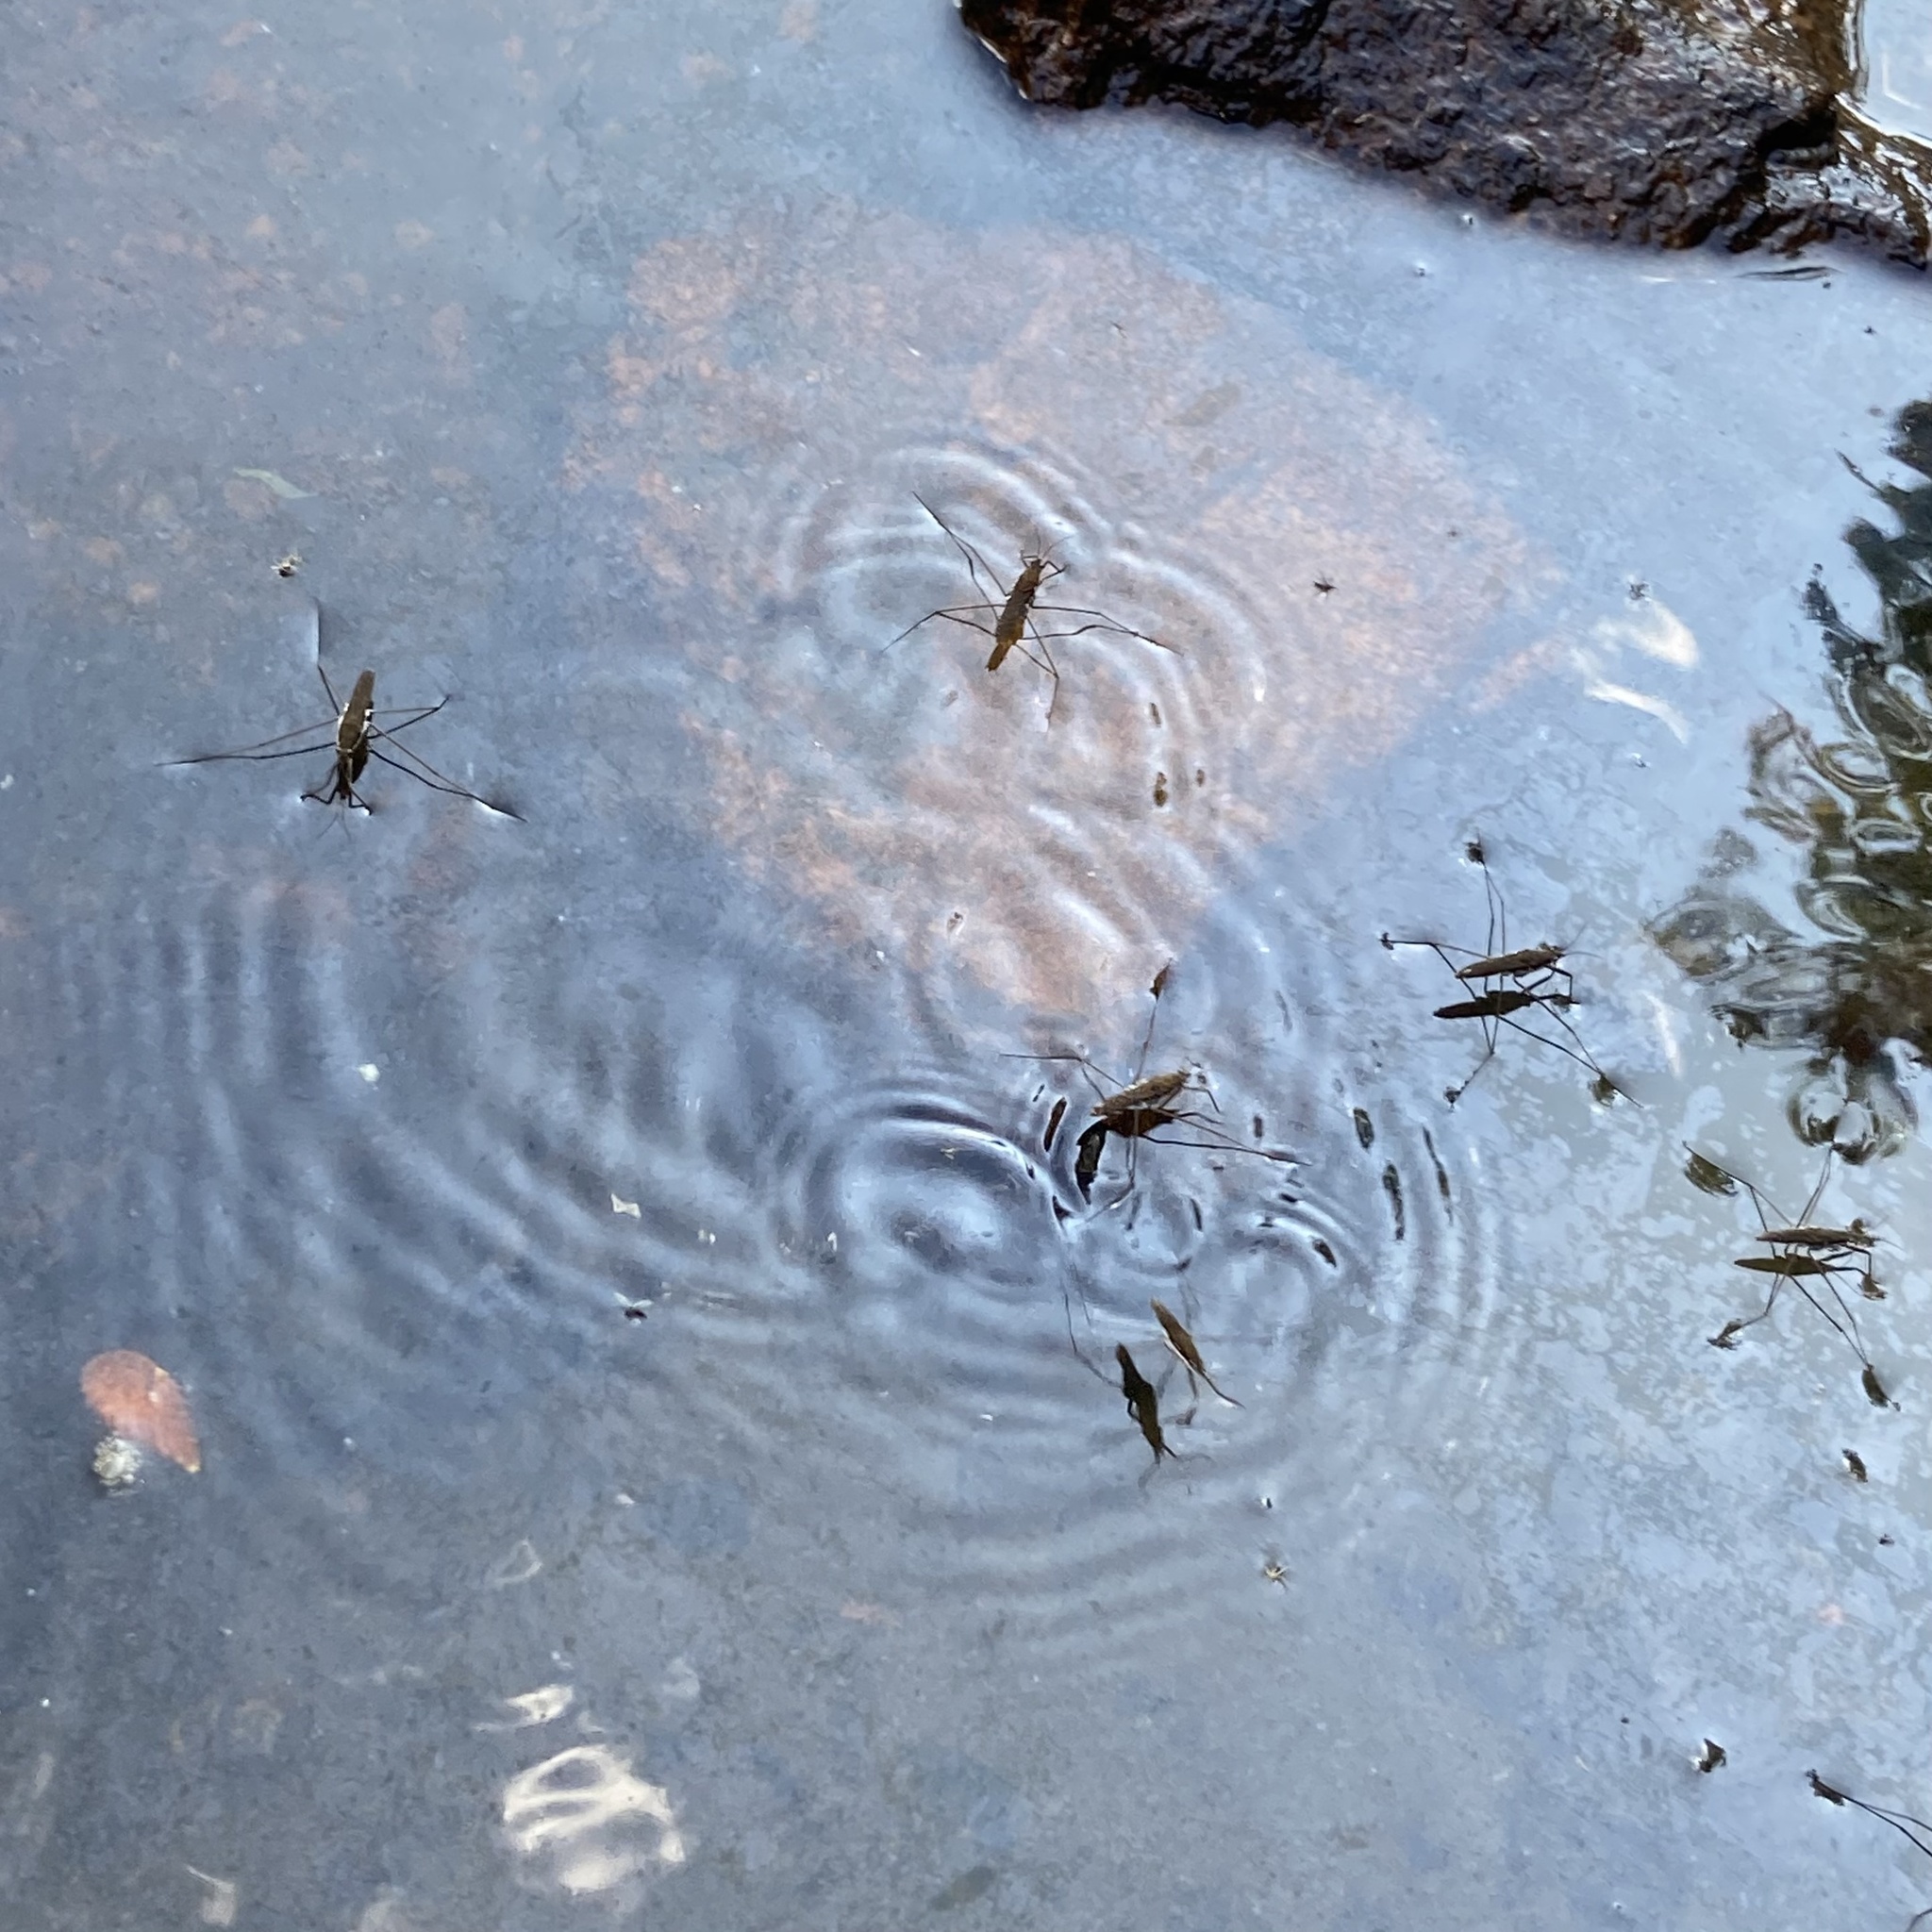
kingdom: Animalia
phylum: Arthropoda
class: Insecta
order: Hemiptera
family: Gerridae
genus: Aquarius
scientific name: Aquarius remigis
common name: Common water strider
